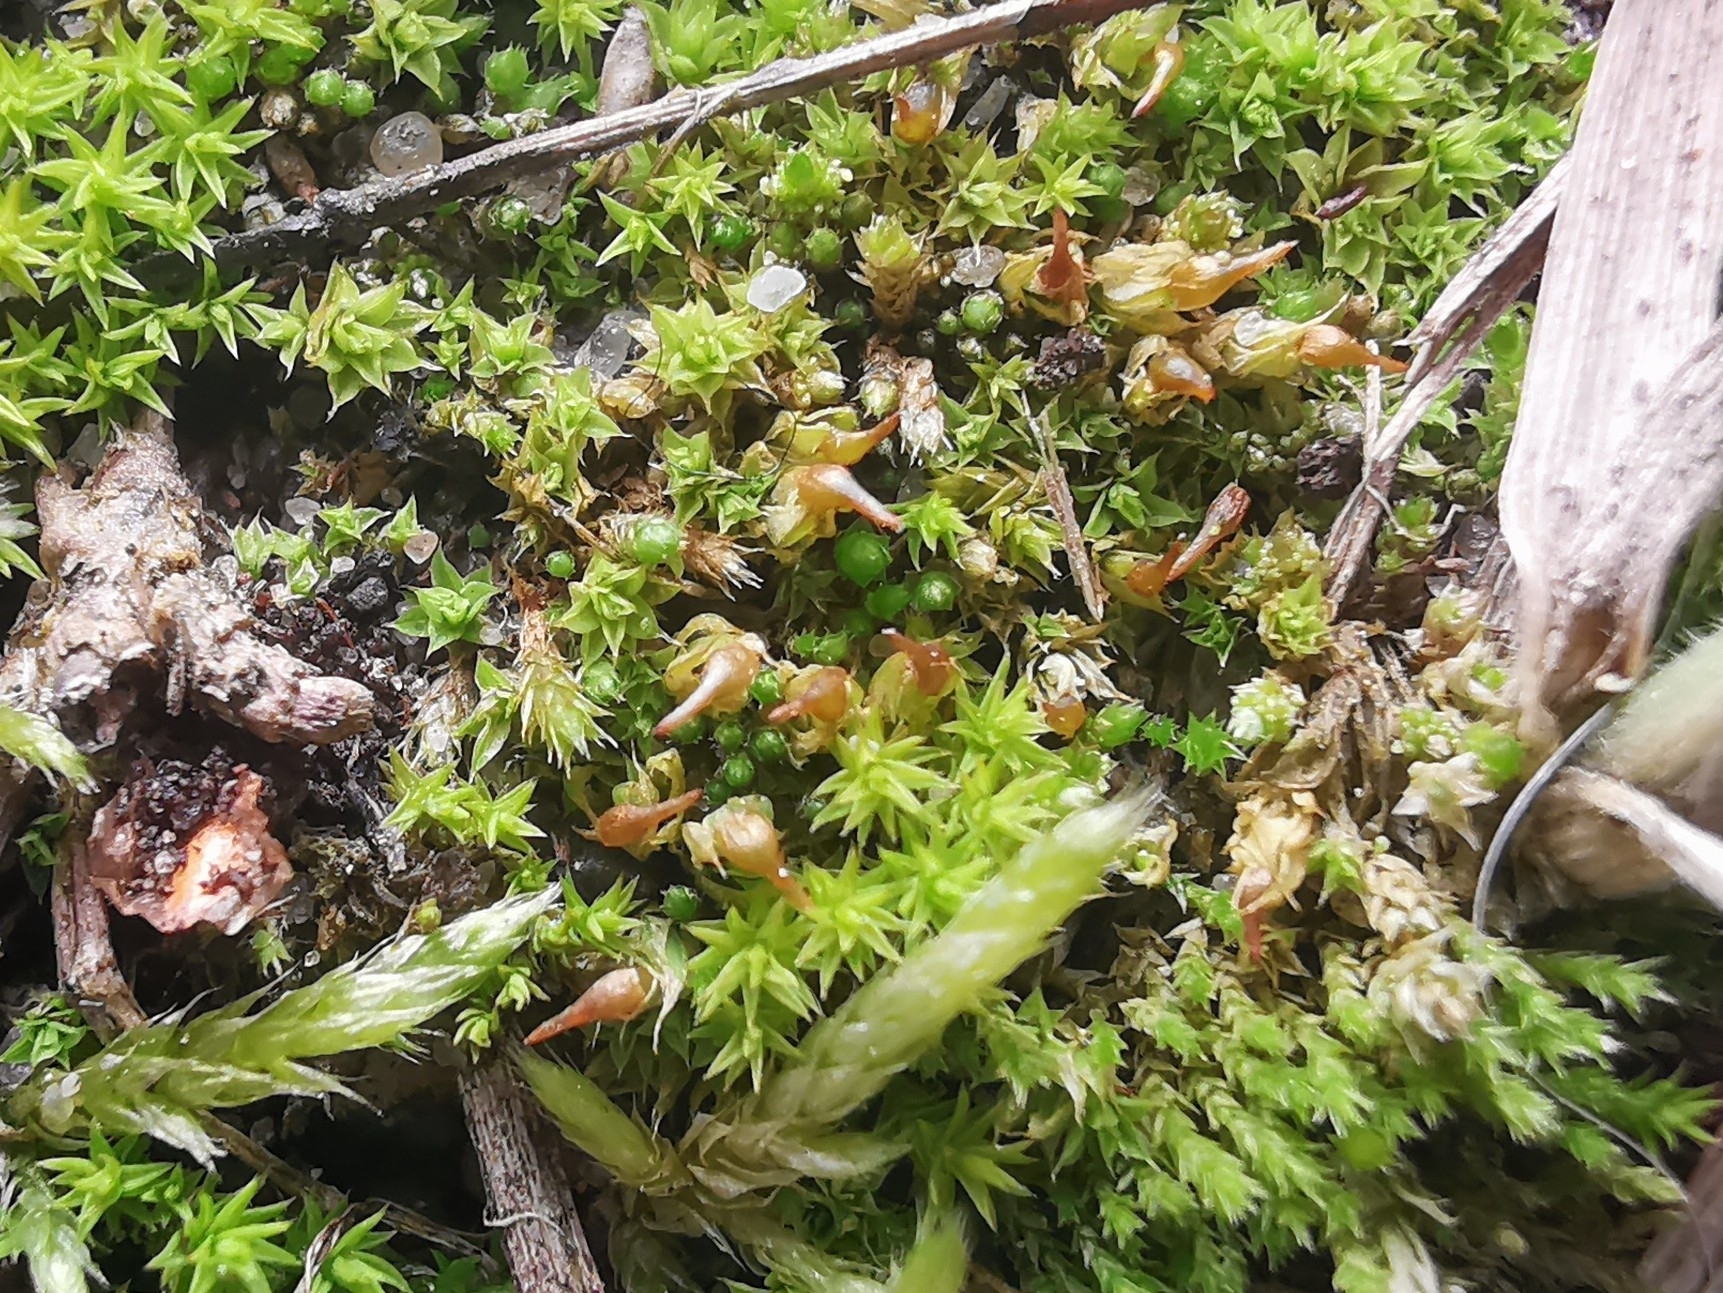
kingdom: Plantae
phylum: Bryophyta
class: Bryopsida
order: Pottiales
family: Pottiaceae
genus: Tortula
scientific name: Tortula protobryoides
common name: Tall pottia
